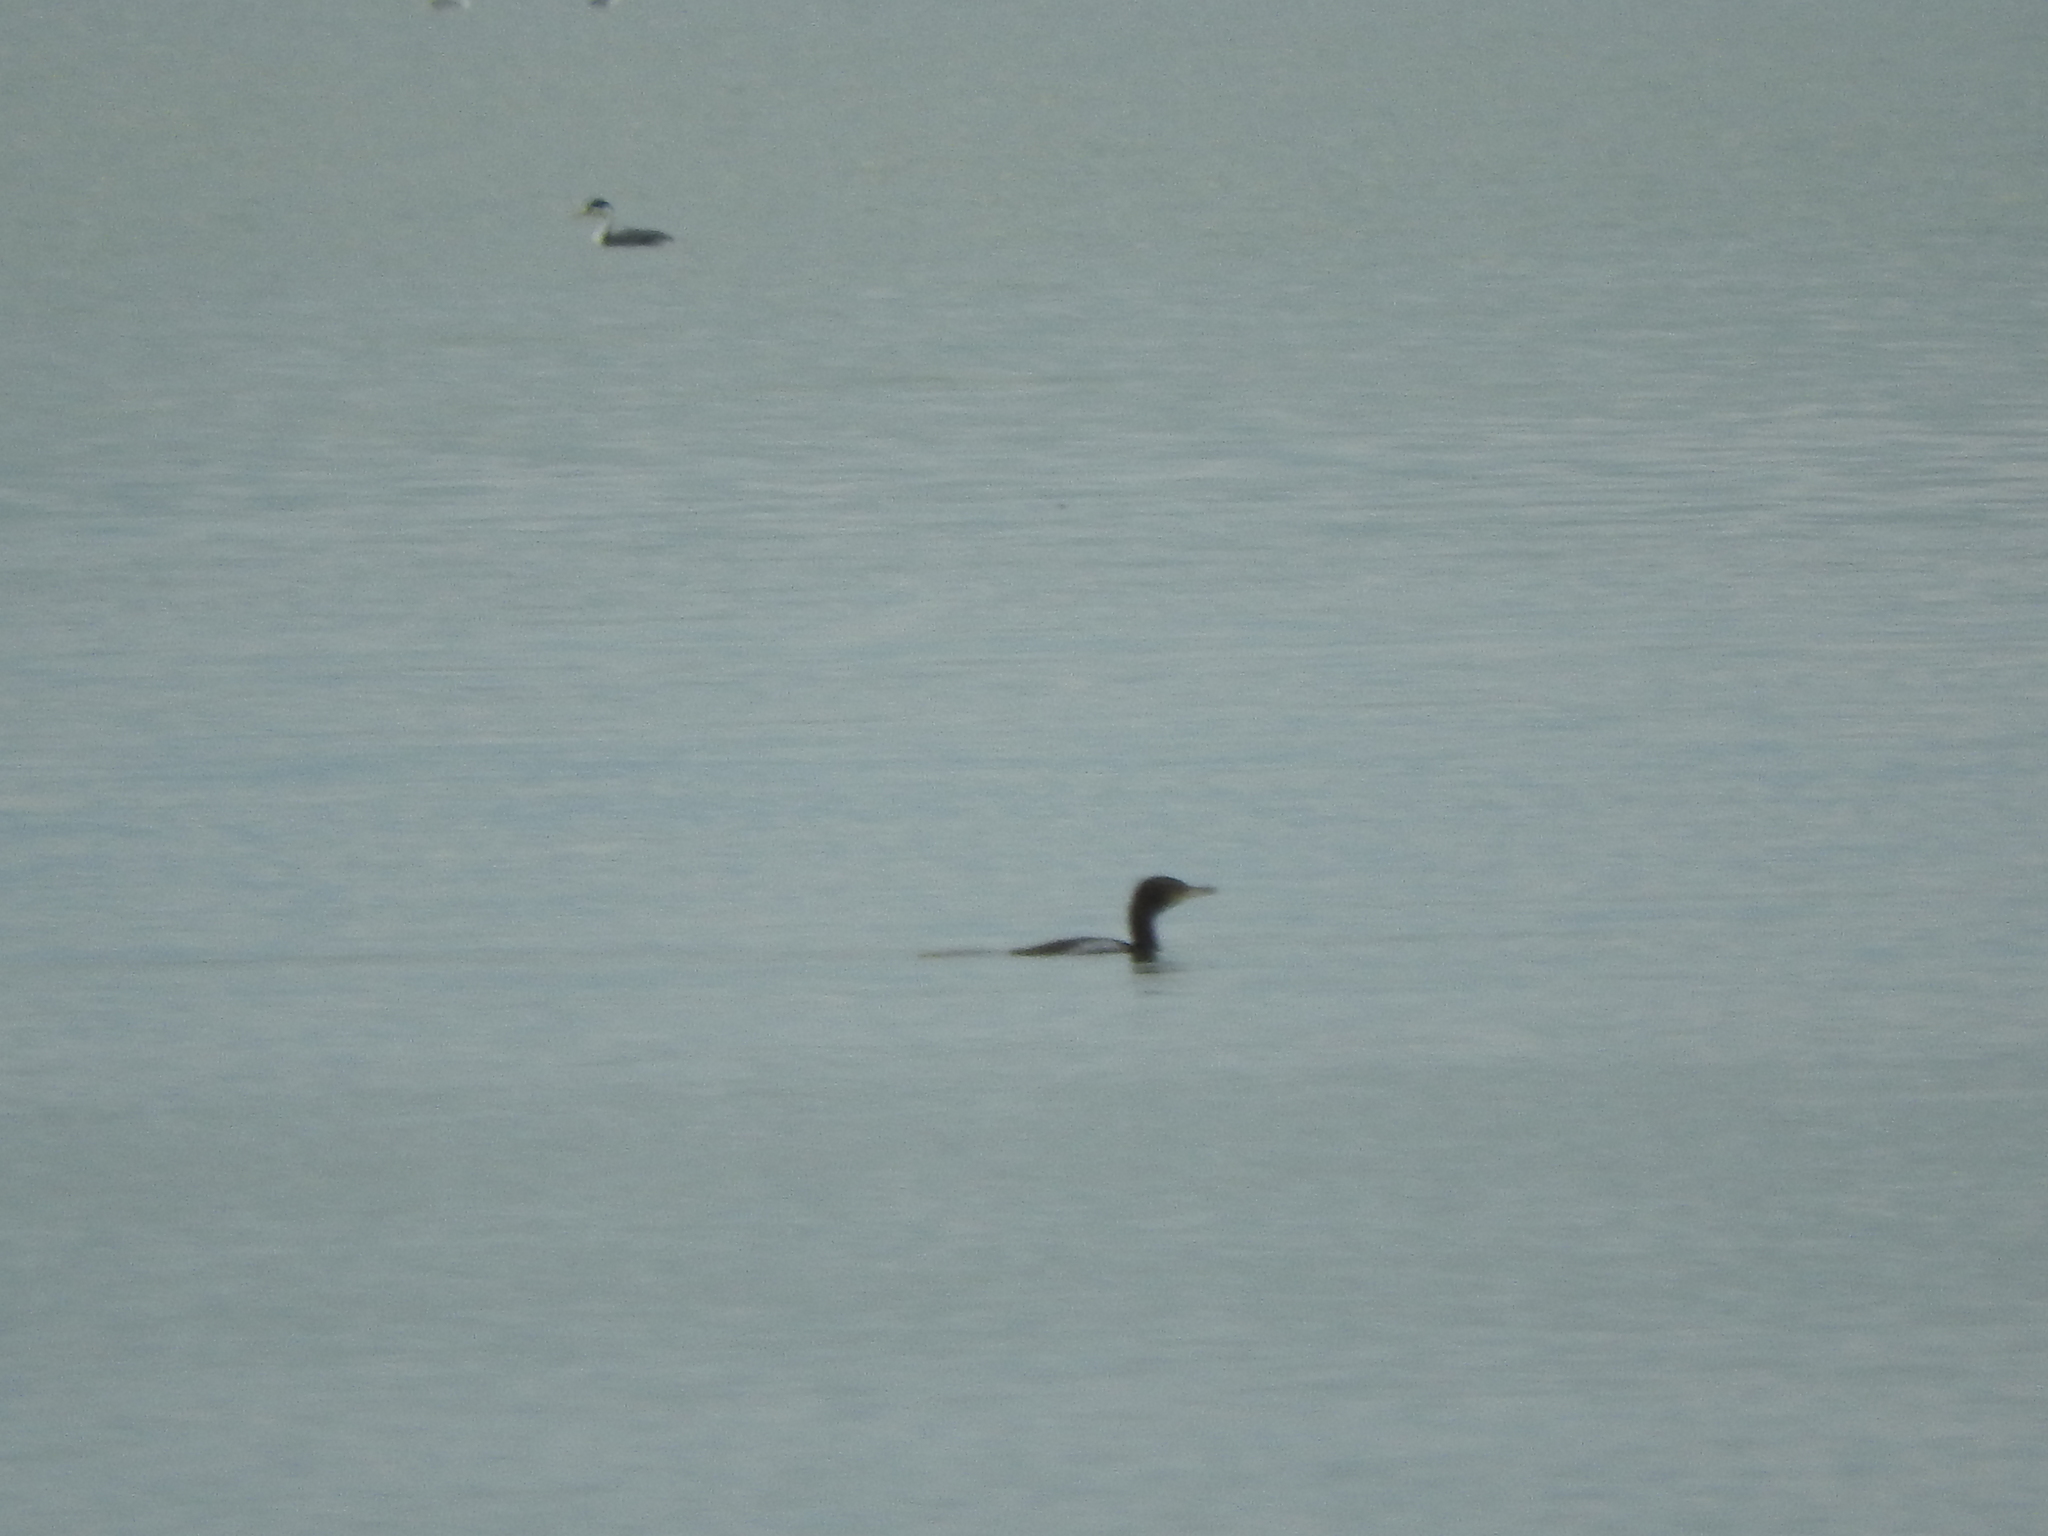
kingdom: Animalia
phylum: Chordata
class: Aves
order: Podicipediformes
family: Podicipedidae
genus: Aechmophorus
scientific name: Aechmophorus clarkii
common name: Clark's grebe
